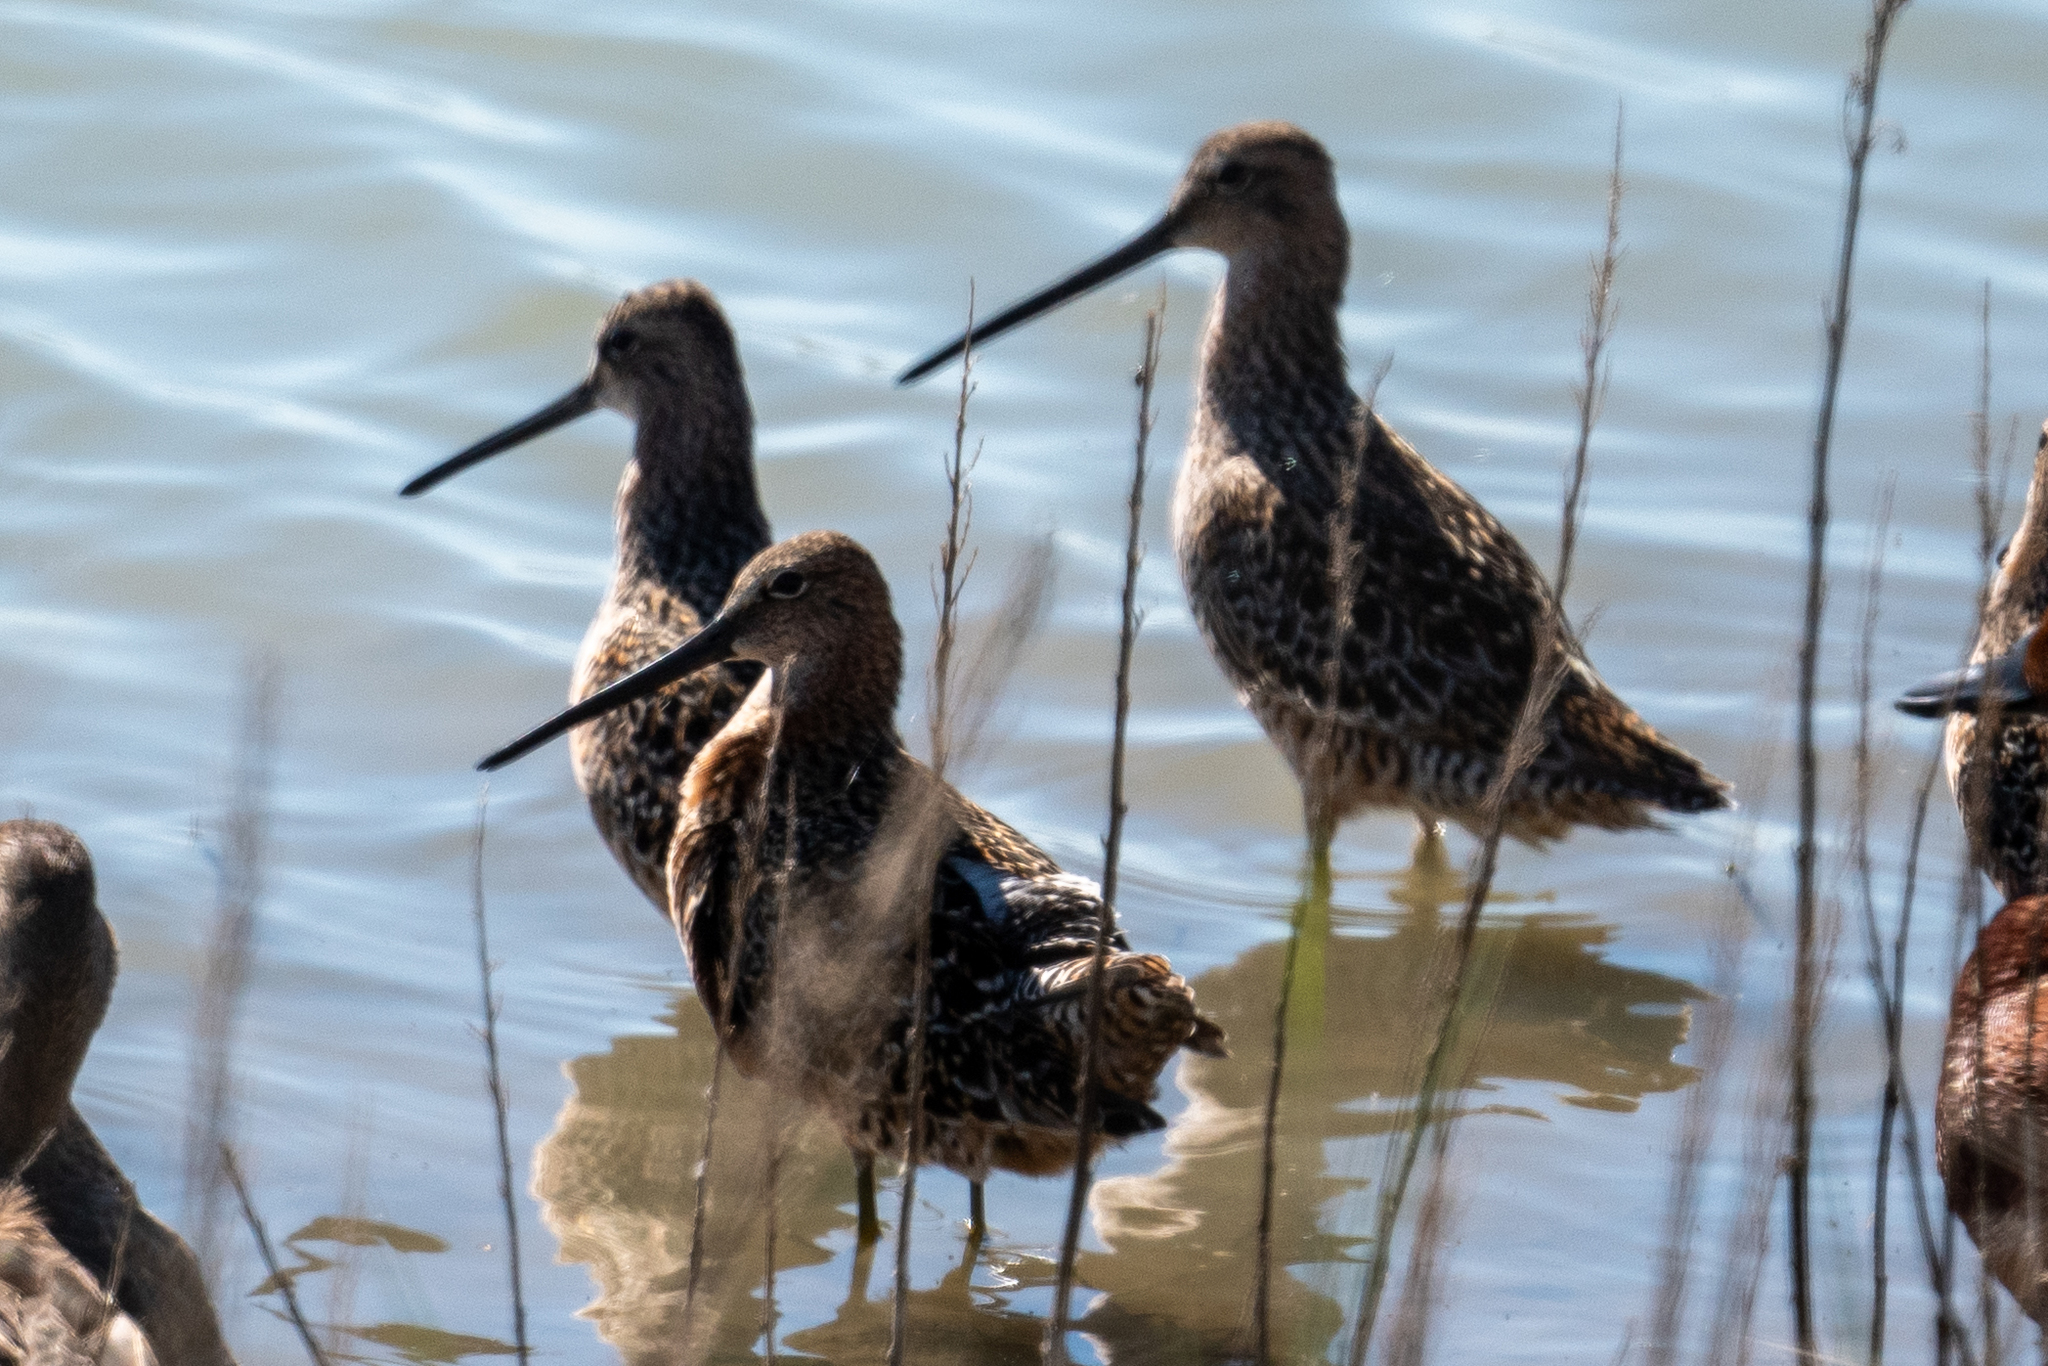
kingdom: Animalia
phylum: Chordata
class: Aves
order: Charadriiformes
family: Scolopacidae
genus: Limnodromus
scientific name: Limnodromus scolopaceus
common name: Long-billed dowitcher
